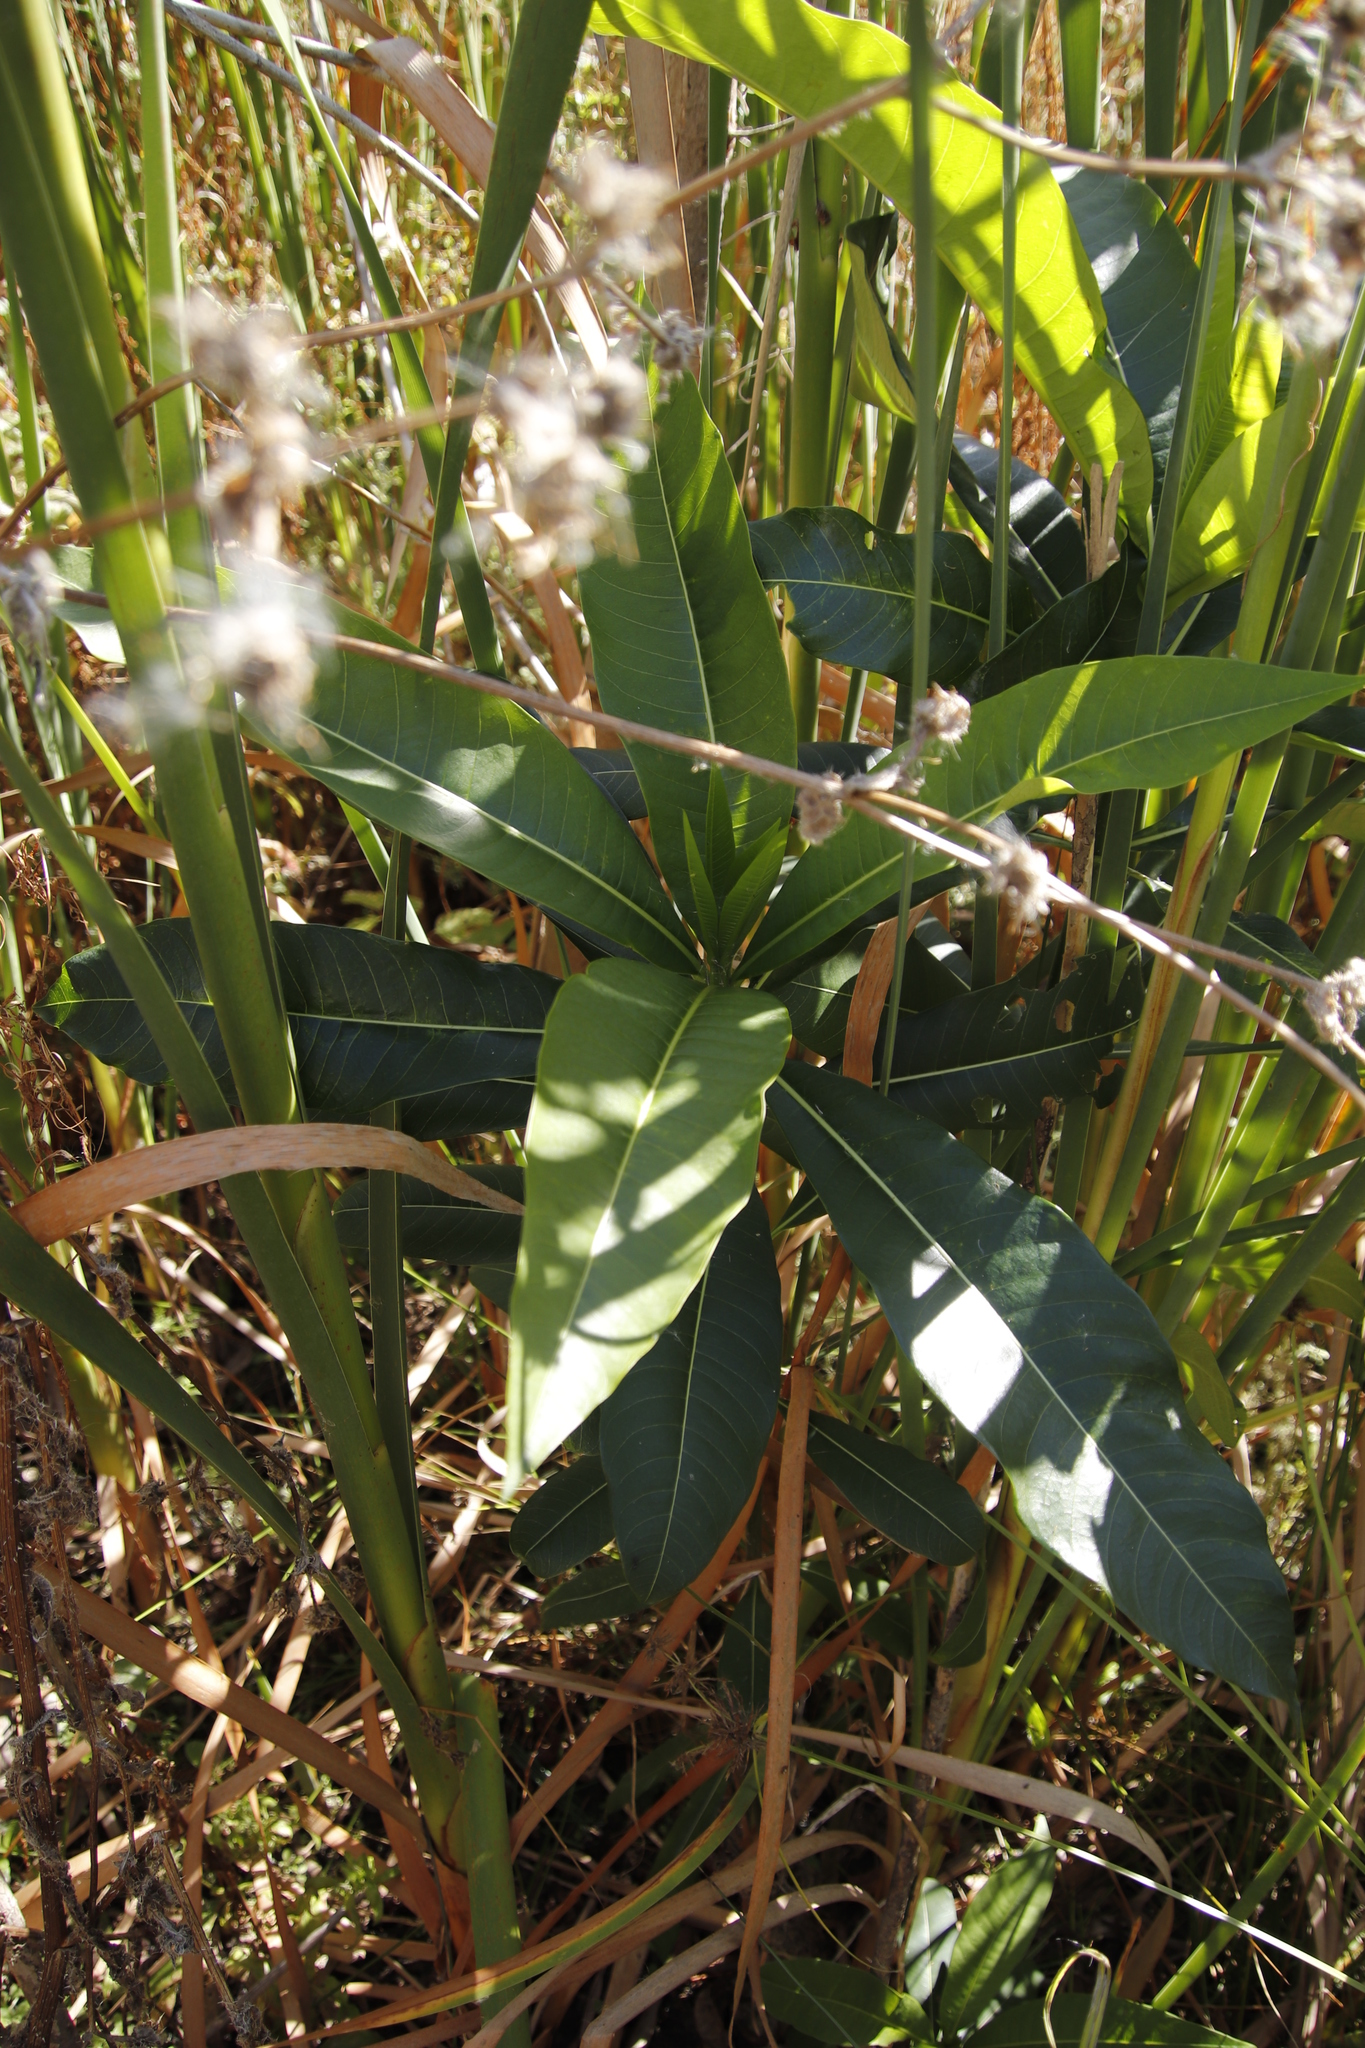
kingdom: Plantae
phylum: Tracheophyta
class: Magnoliopsida
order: Gentianales
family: Apocynaceae
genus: Rauvolfia
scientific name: Rauvolfia caffra
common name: Quininetree
